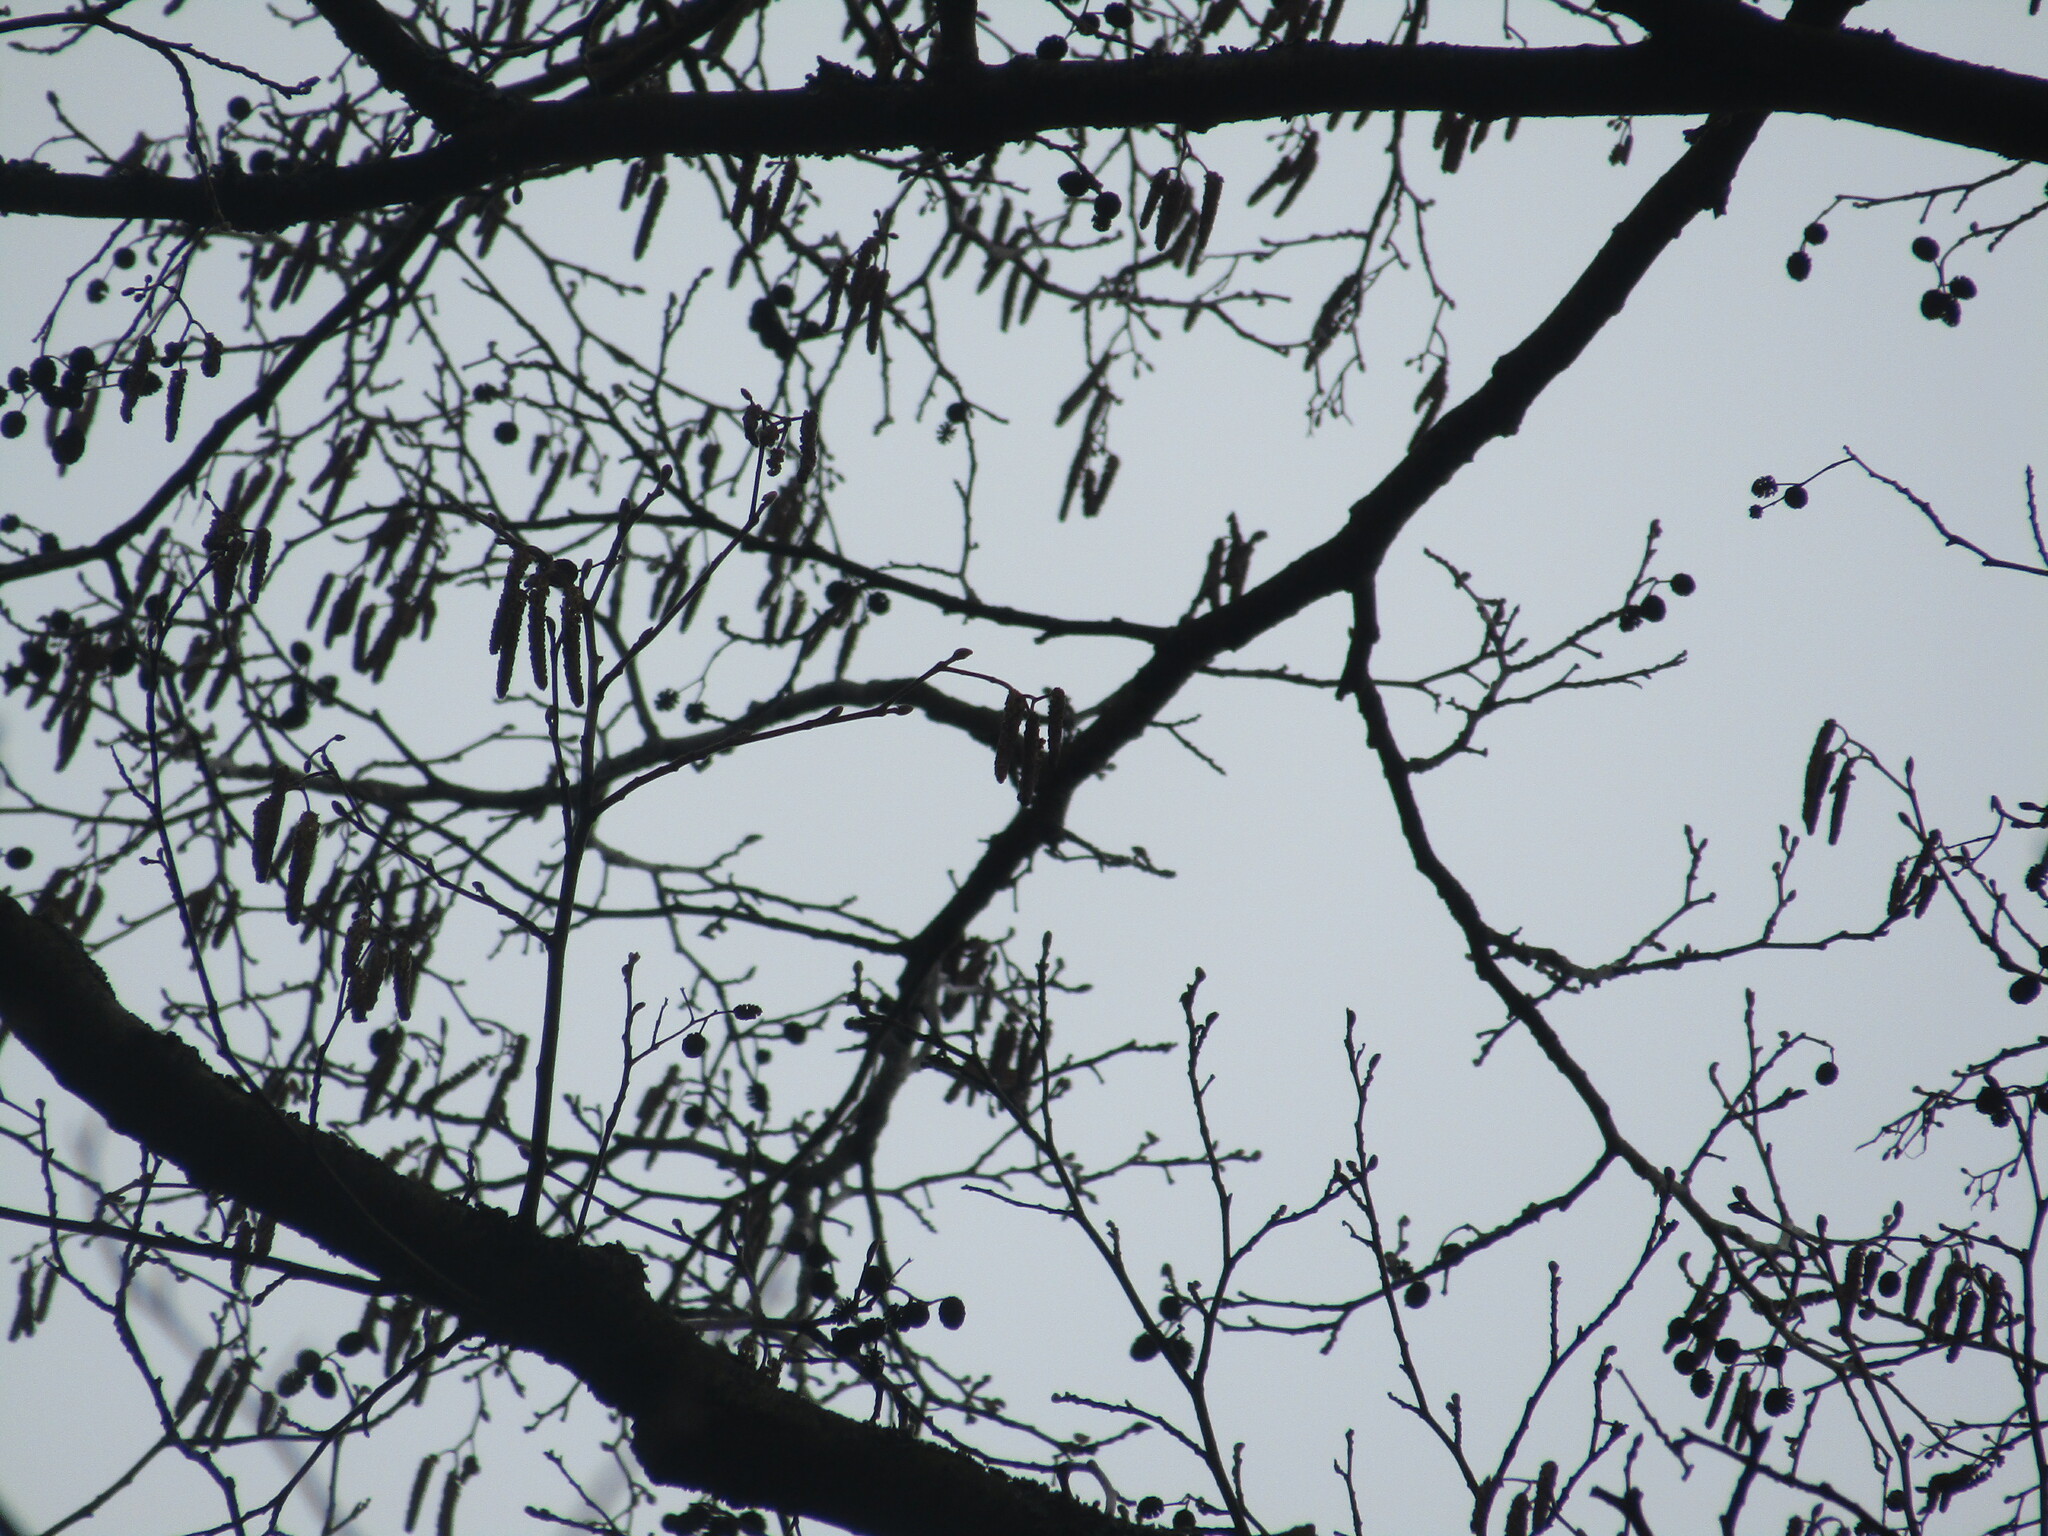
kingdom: Plantae
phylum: Tracheophyta
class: Magnoliopsida
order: Fagales
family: Betulaceae
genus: Alnus
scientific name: Alnus glutinosa
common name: Black alder
